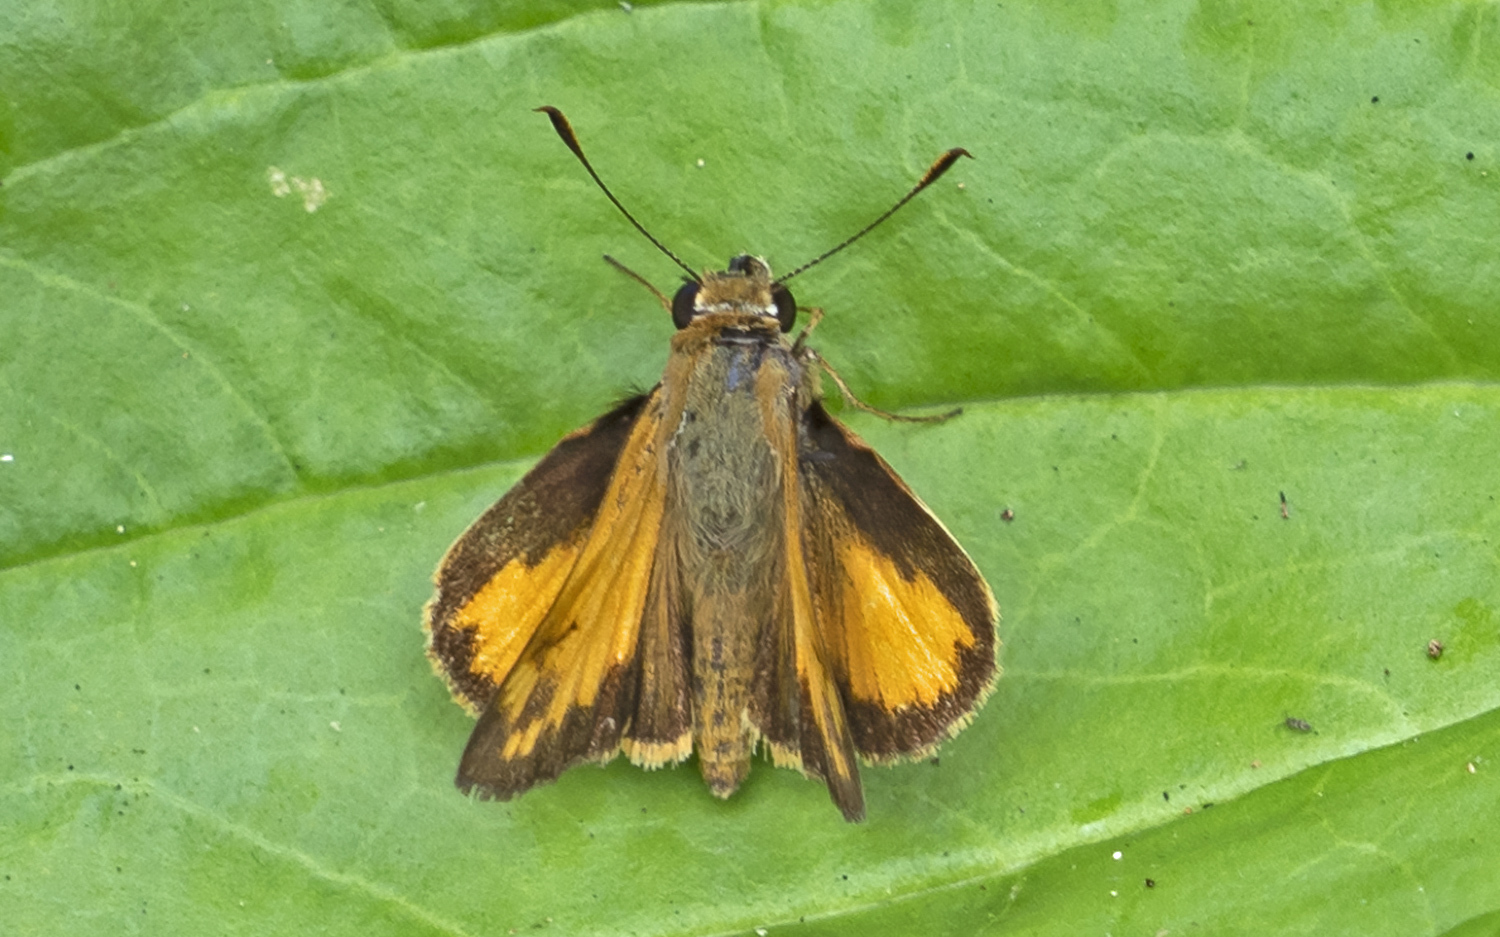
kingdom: Animalia
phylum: Arthropoda
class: Insecta
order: Lepidoptera
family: Hesperiidae
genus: Lon
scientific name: Lon zabulon
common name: Zabulon skipper
